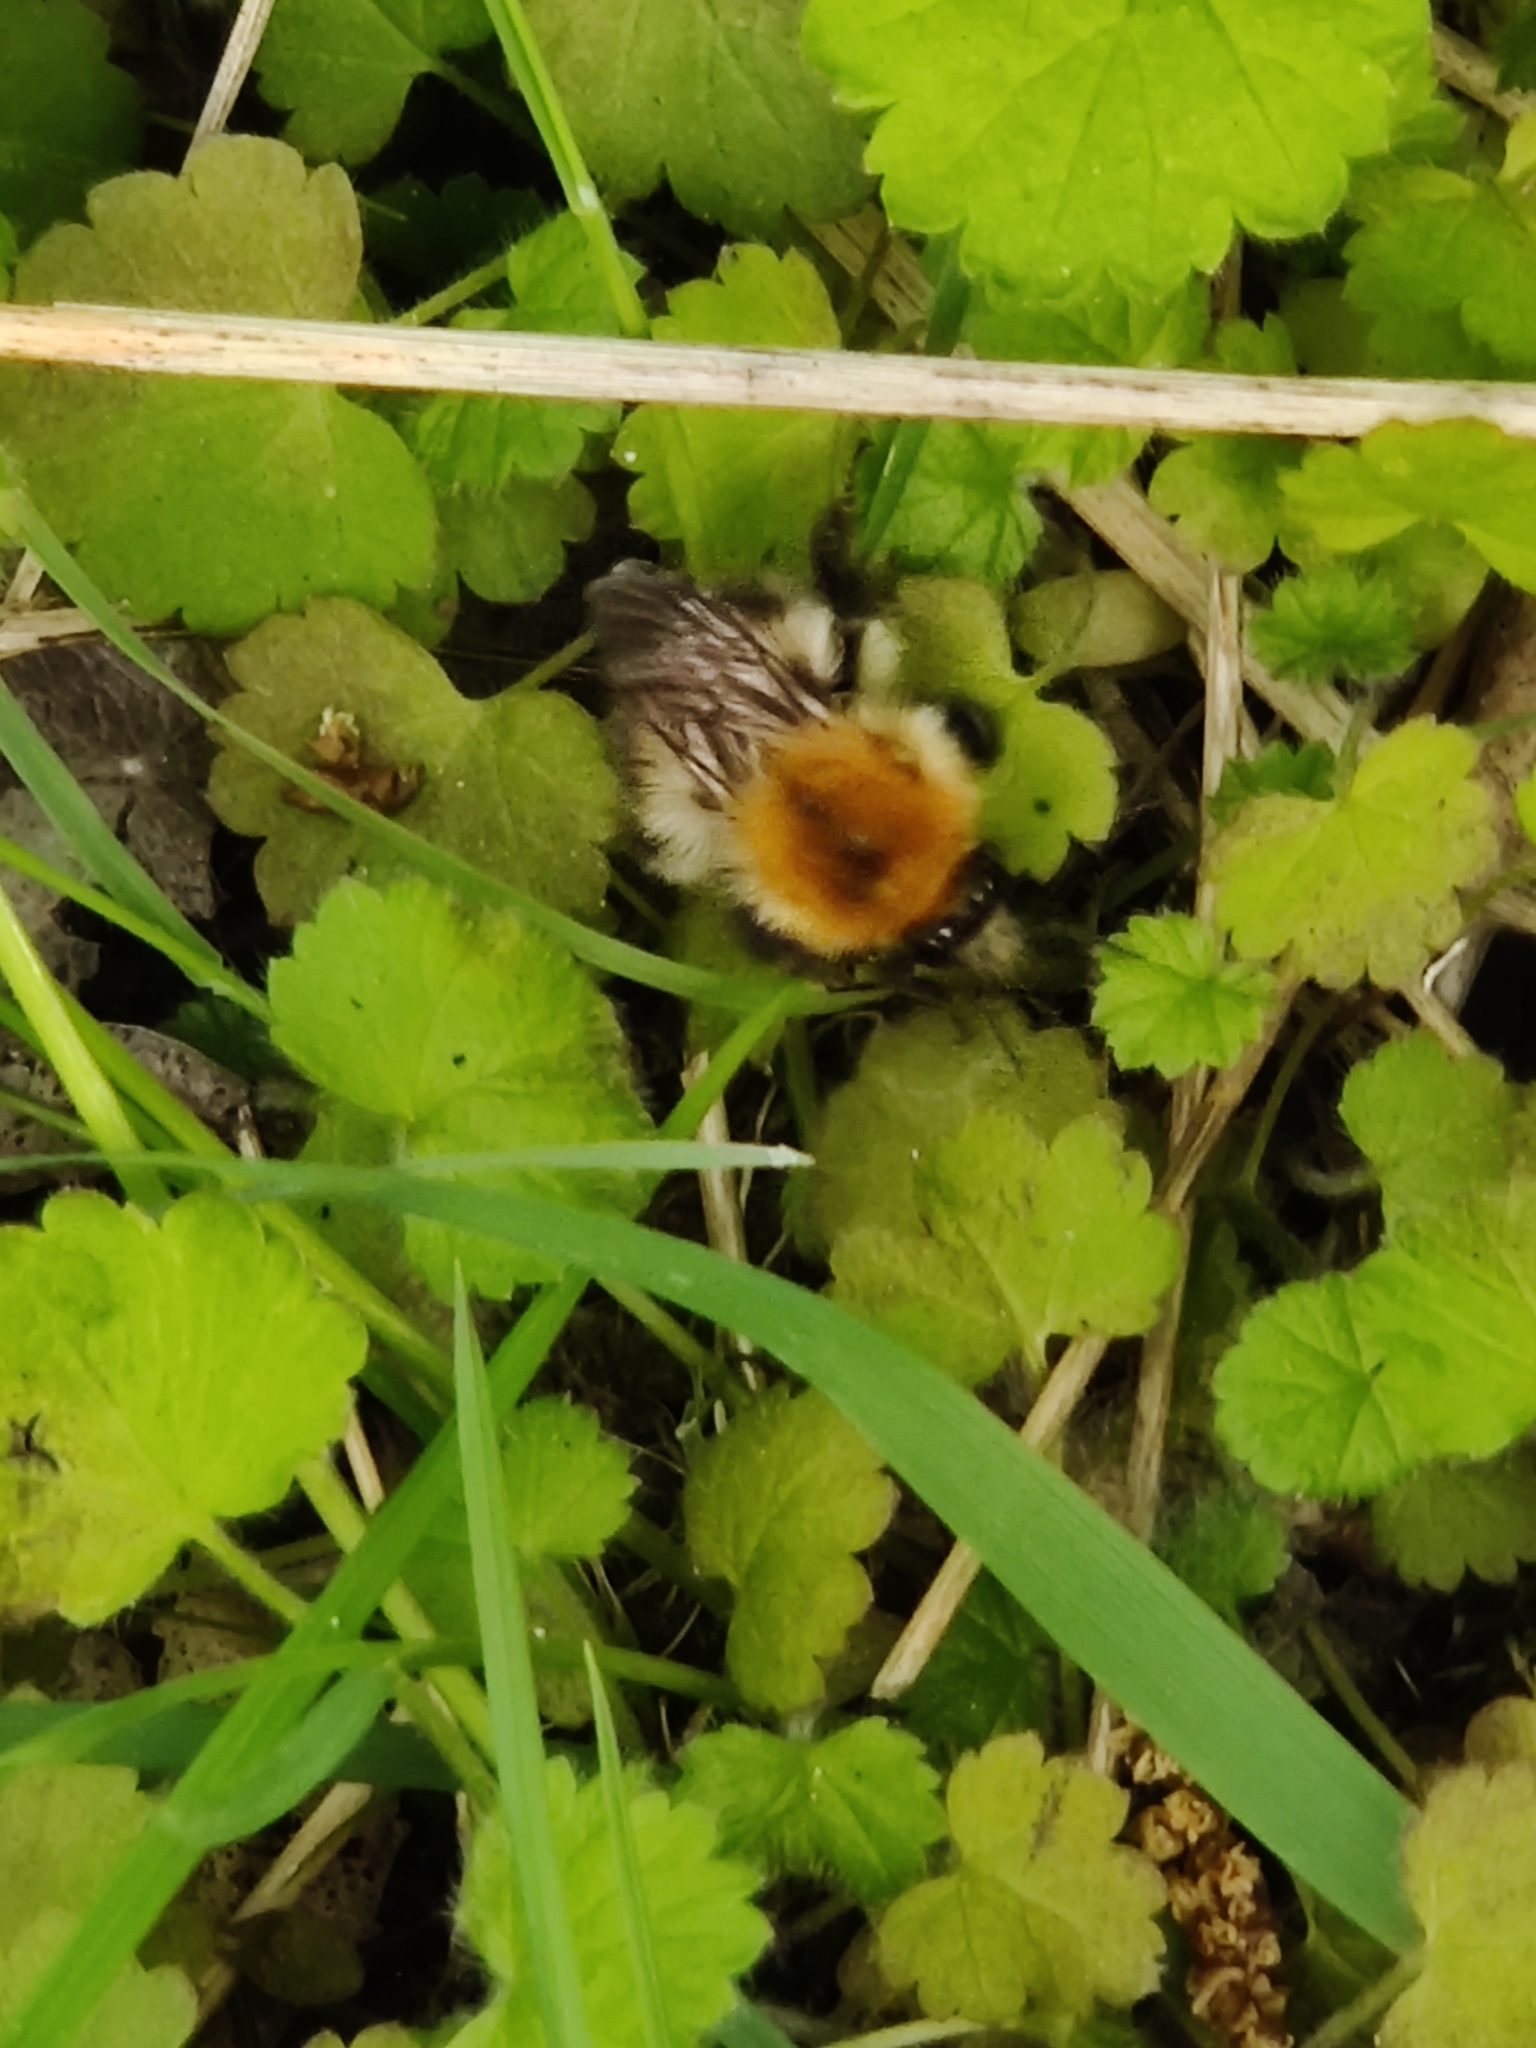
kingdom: Animalia
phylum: Arthropoda
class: Insecta
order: Hymenoptera
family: Apidae
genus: Bombus
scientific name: Bombus pascuorum
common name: Common carder bee
